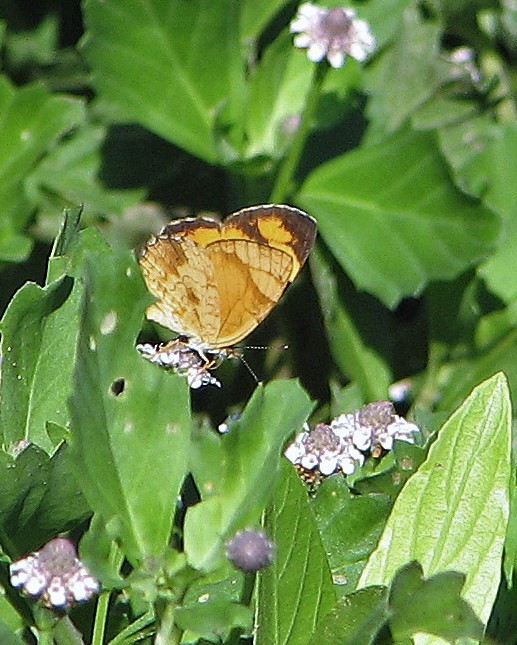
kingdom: Animalia
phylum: Arthropoda
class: Insecta
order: Lepidoptera
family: Nymphalidae
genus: Tegosa
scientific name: Tegosa claudina
